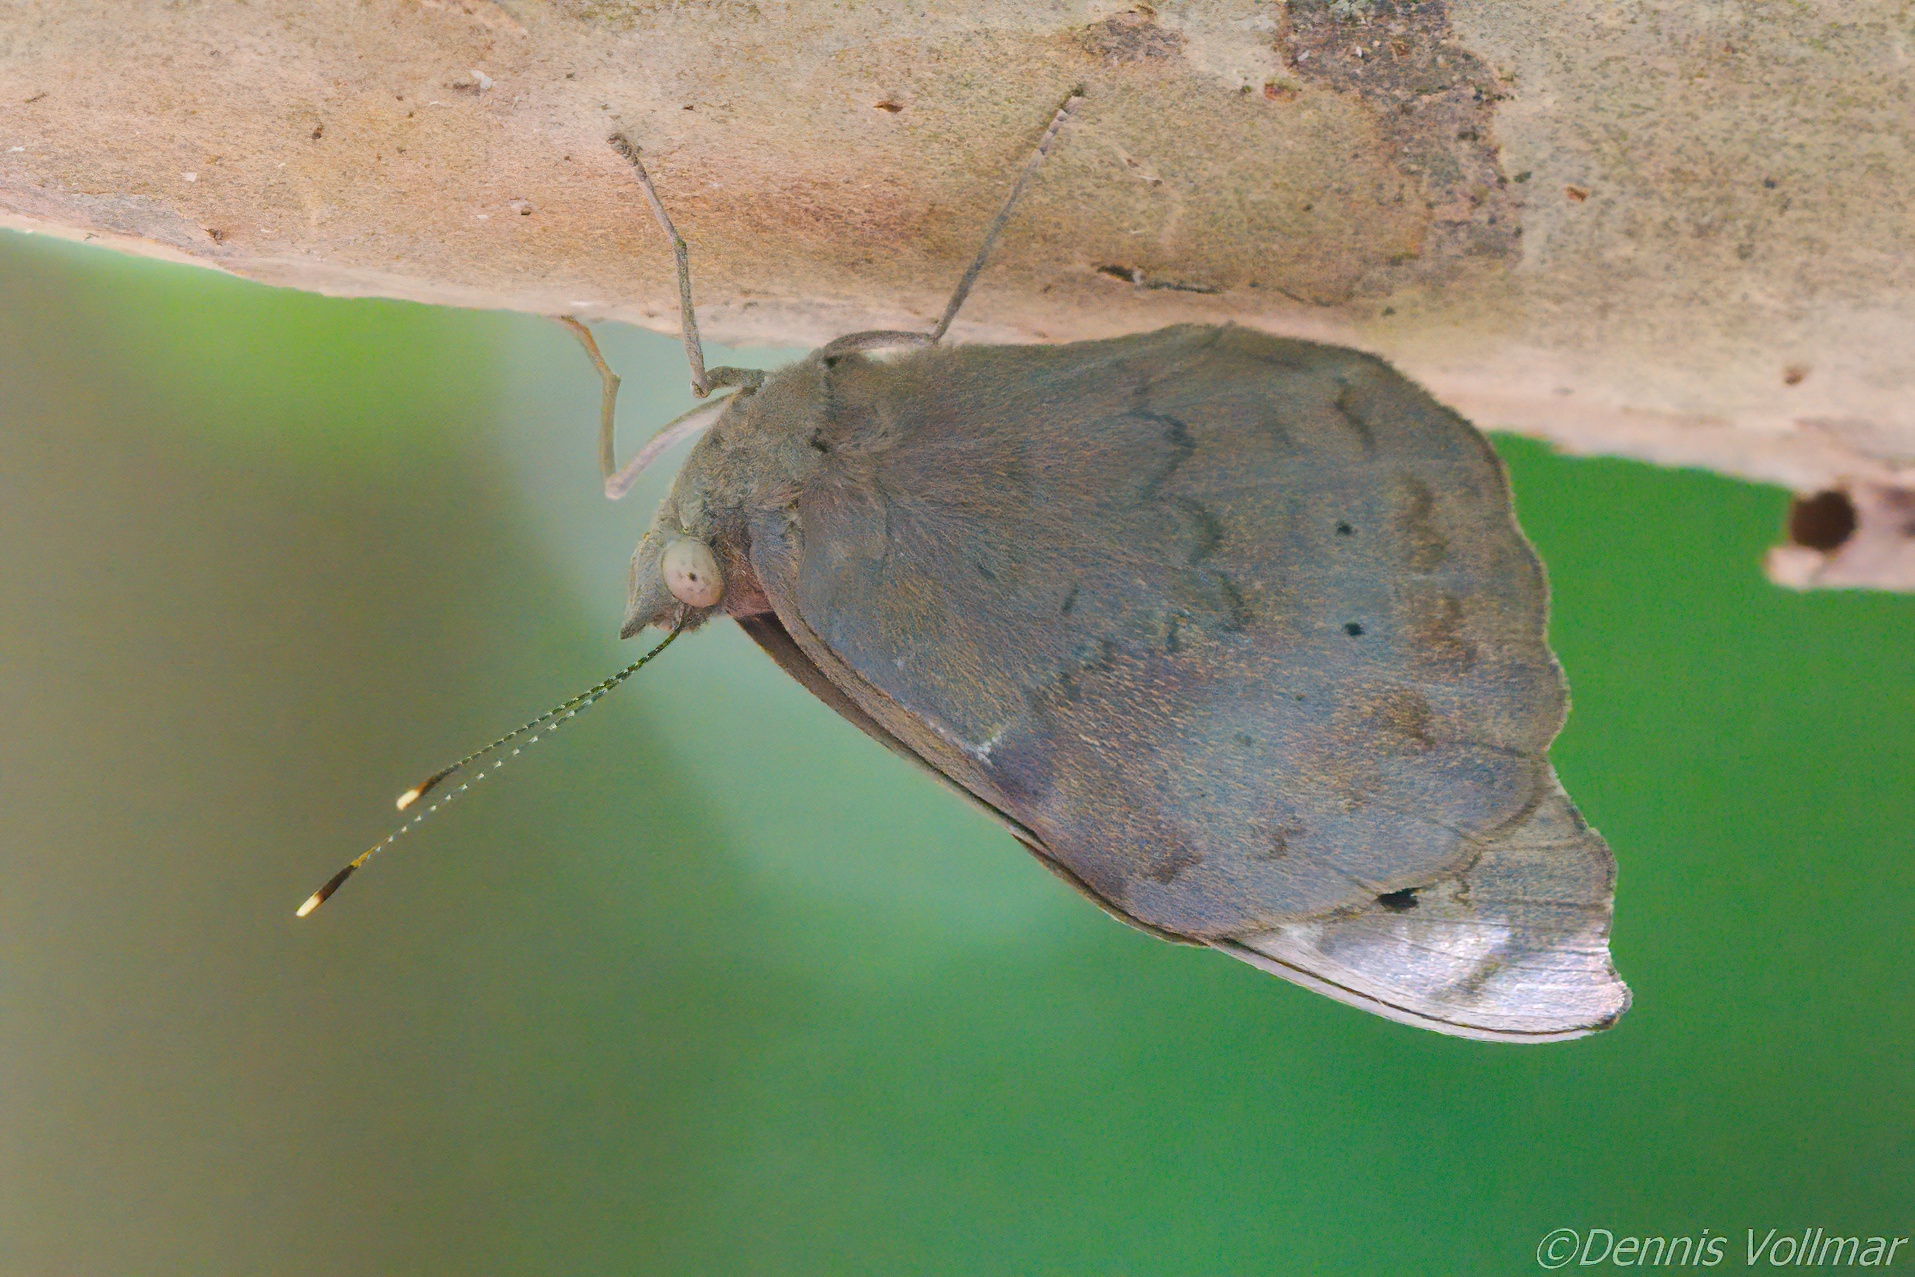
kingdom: Animalia
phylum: Arthropoda
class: Insecta
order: Lepidoptera
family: Nymphalidae
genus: Eunica
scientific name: Eunica tatila
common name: Florida purplewing
